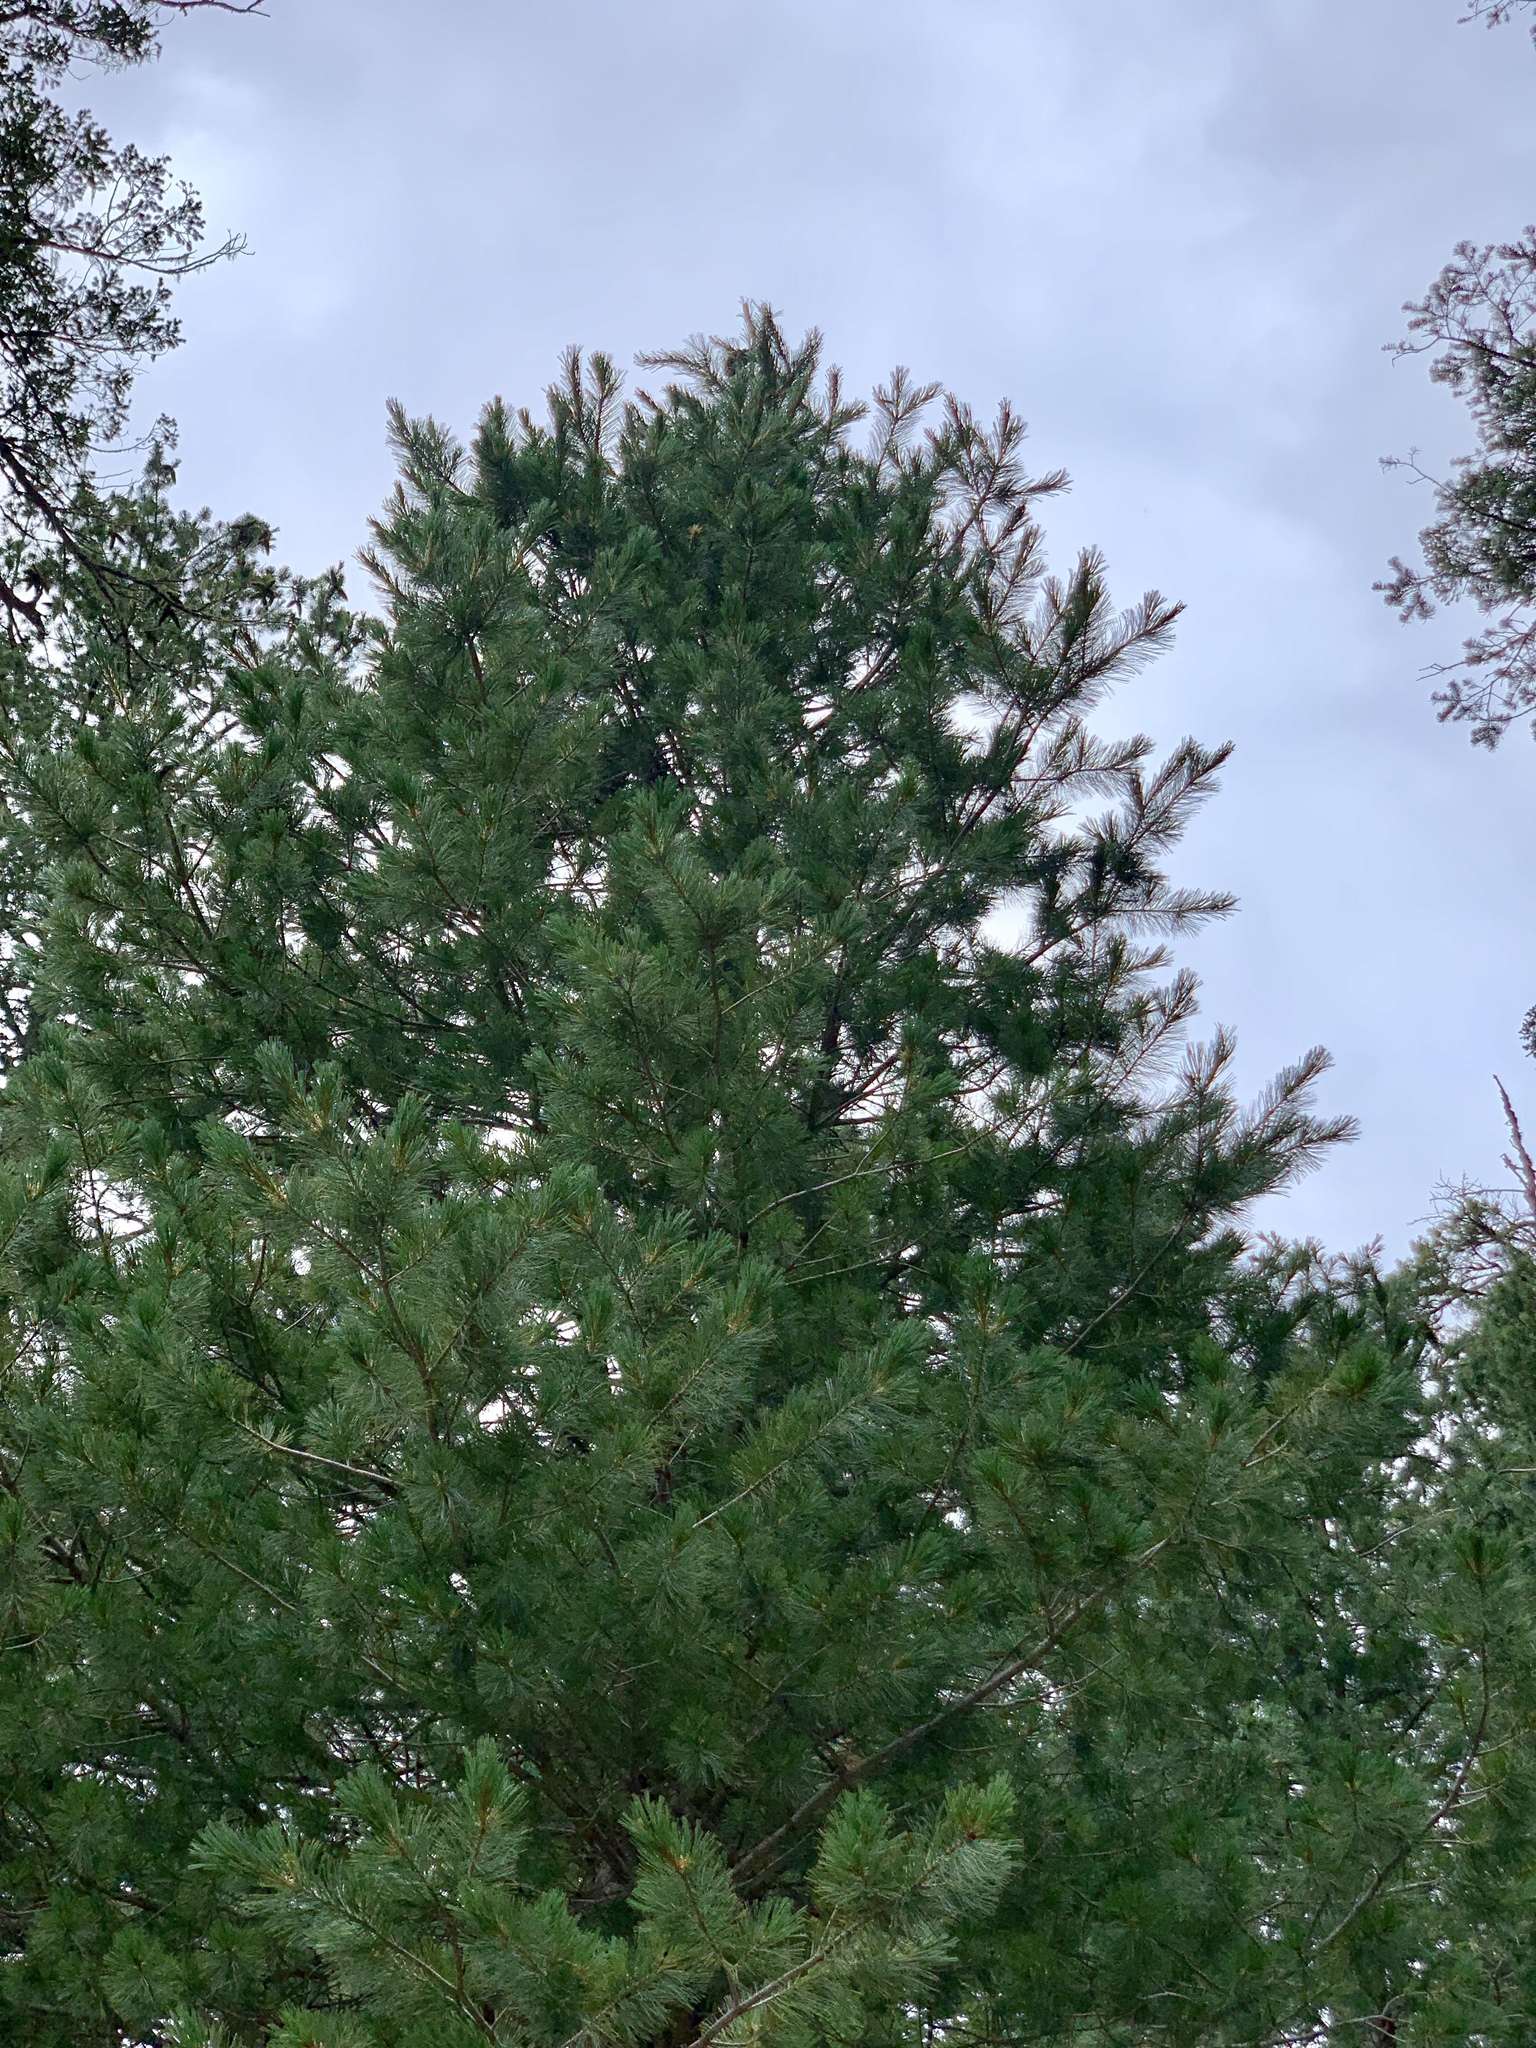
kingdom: Plantae
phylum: Tracheophyta
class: Pinopsida
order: Pinales
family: Pinaceae
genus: Pinus
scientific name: Pinus strobiformis
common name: Southwestern white pine
